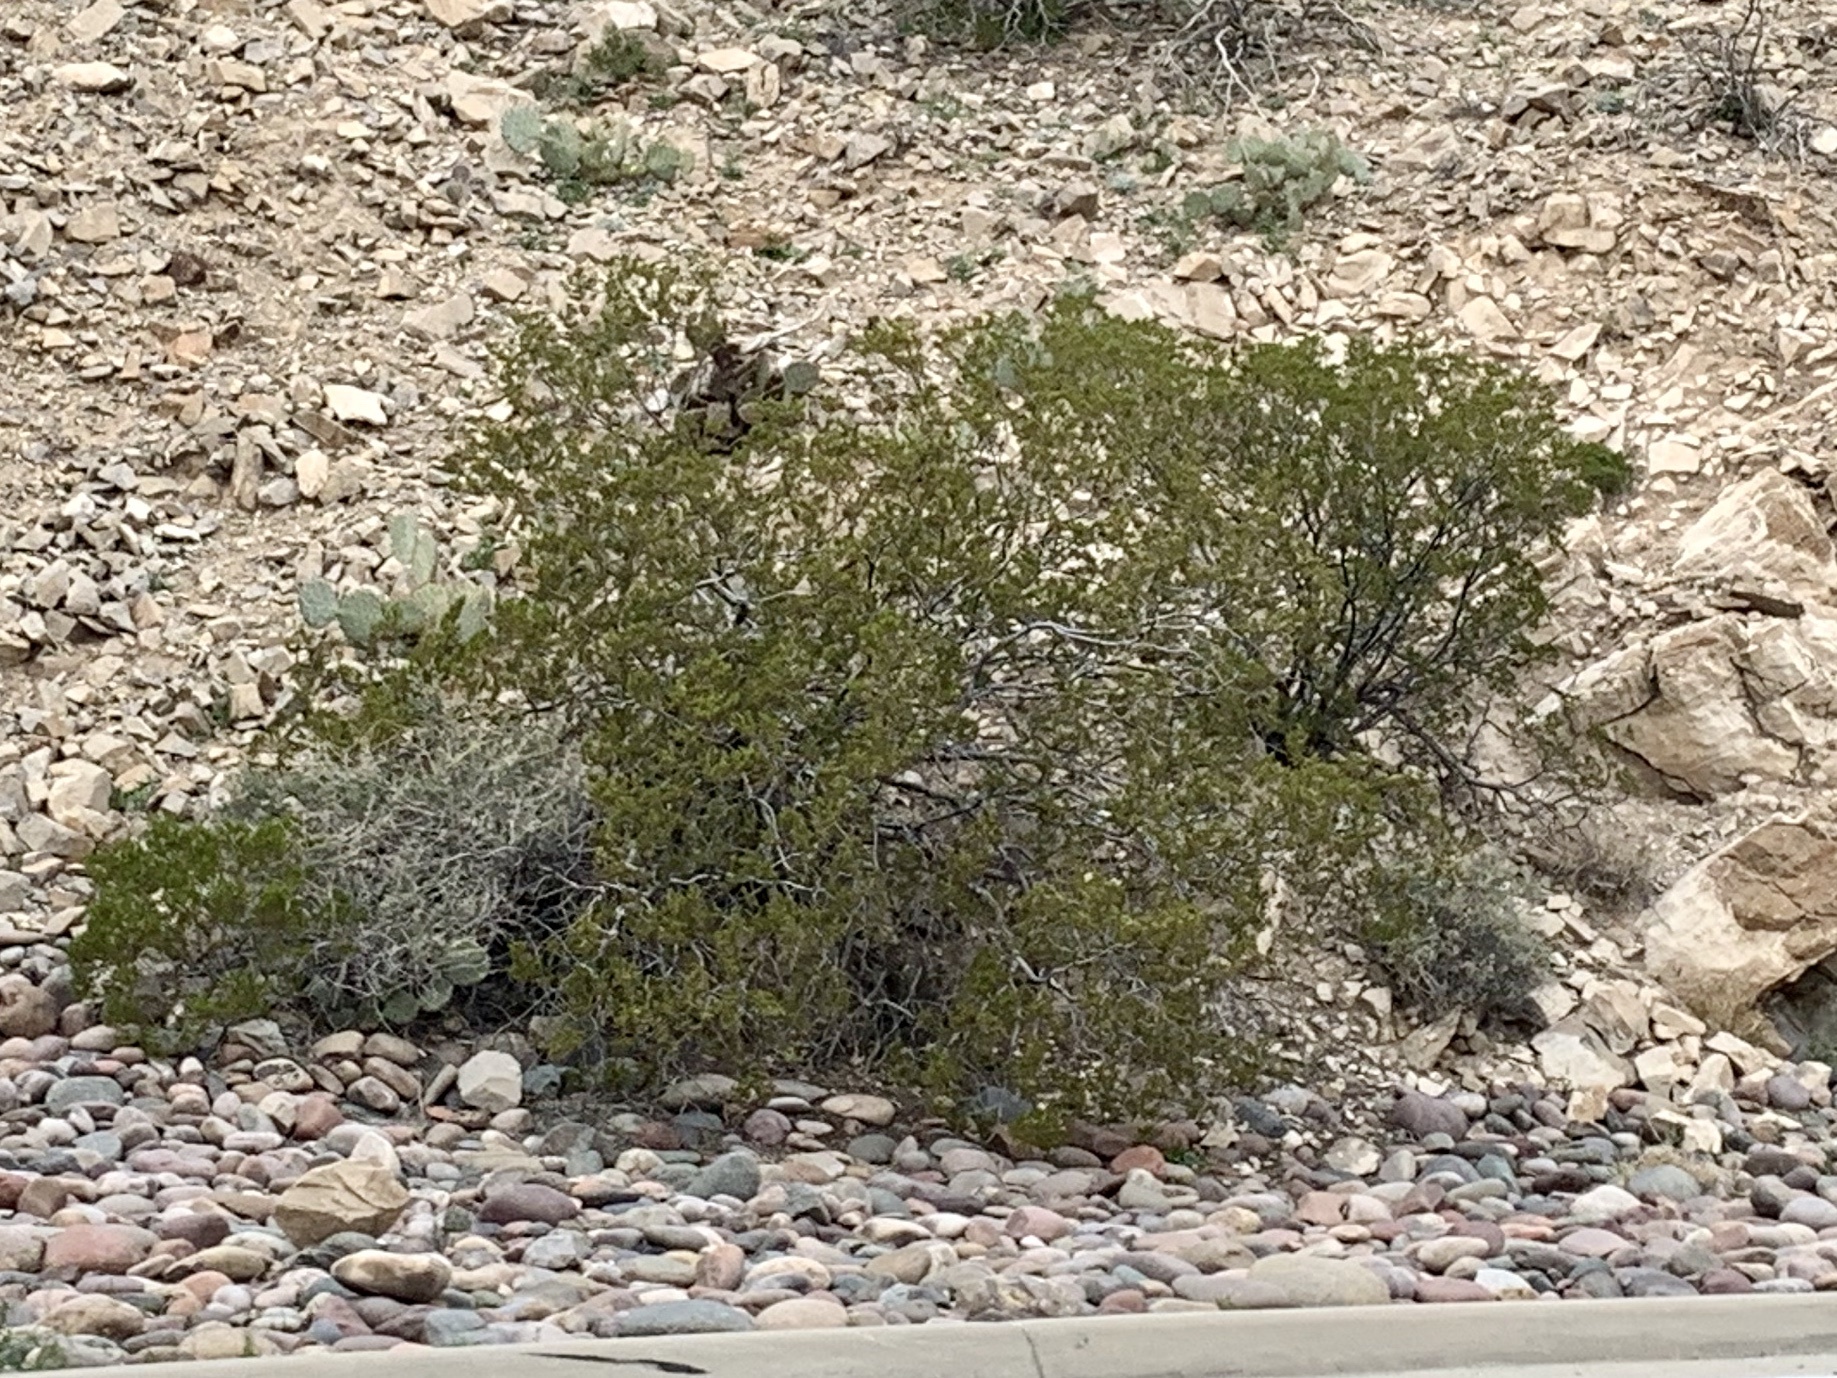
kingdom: Plantae
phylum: Tracheophyta
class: Magnoliopsida
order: Zygophyllales
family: Zygophyllaceae
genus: Larrea
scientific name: Larrea tridentata
